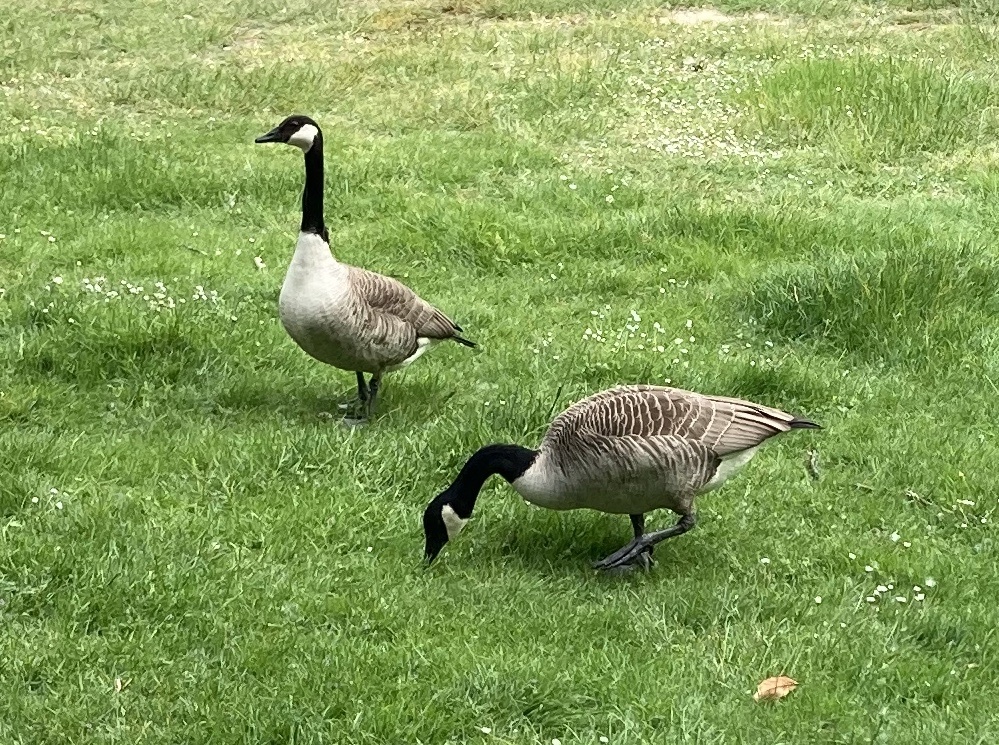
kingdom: Animalia
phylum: Chordata
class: Aves
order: Anseriformes
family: Anatidae
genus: Branta
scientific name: Branta canadensis
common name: Canada goose
